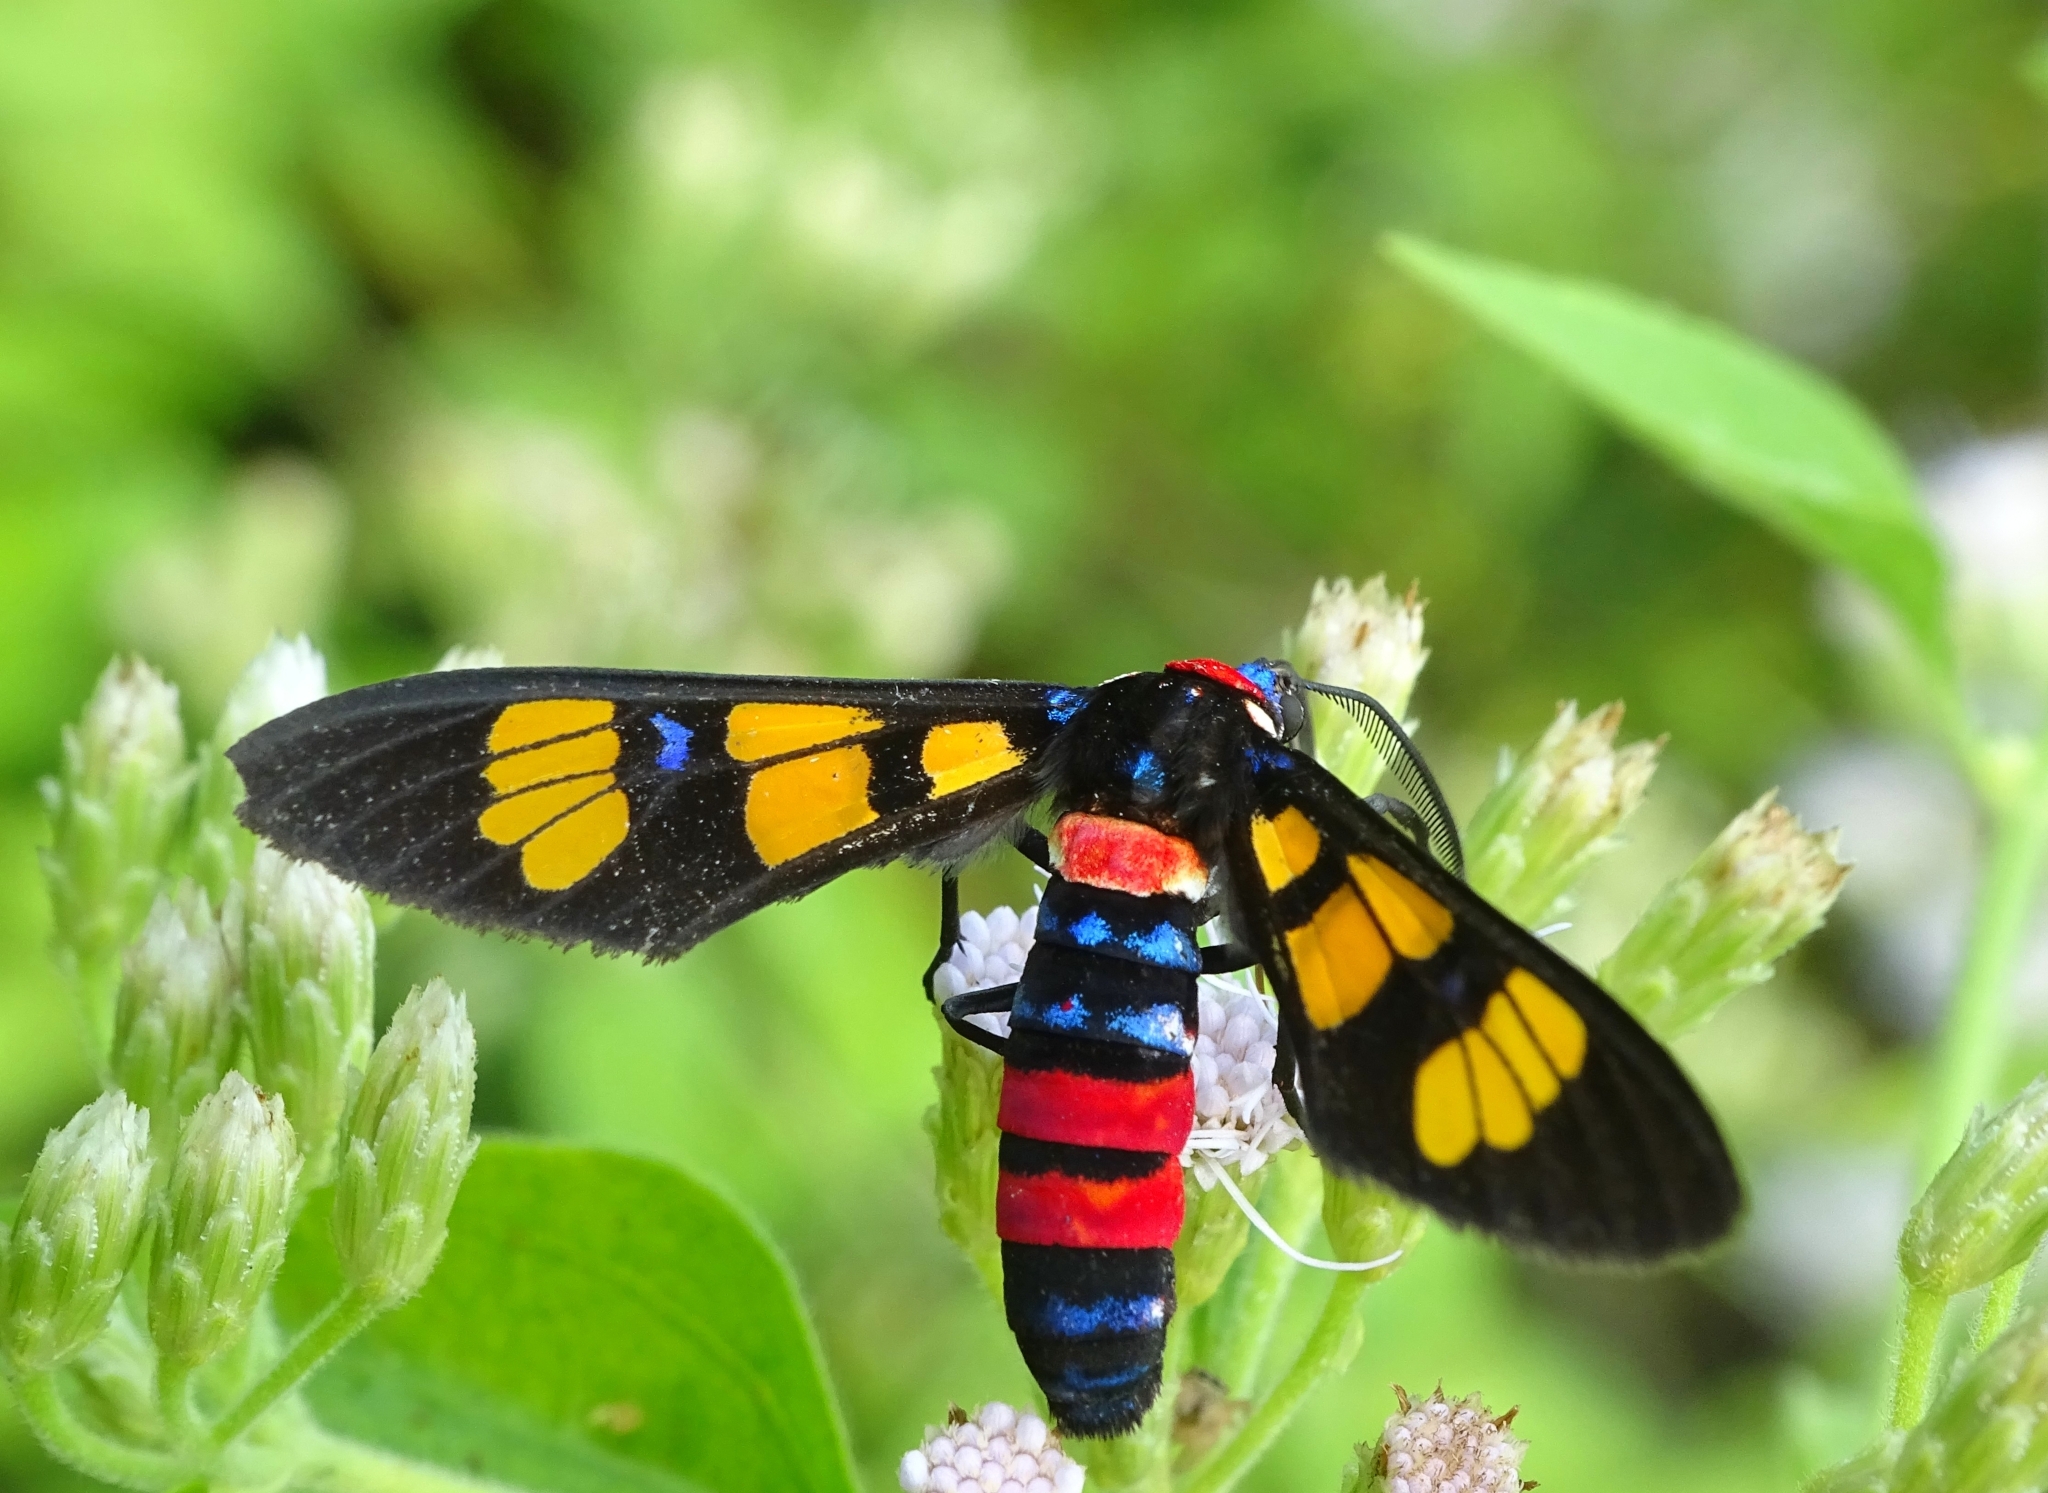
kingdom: Animalia
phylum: Arthropoda
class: Insecta
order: Lepidoptera
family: Erebidae
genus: Euchromia
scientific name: Euchromia polymena
